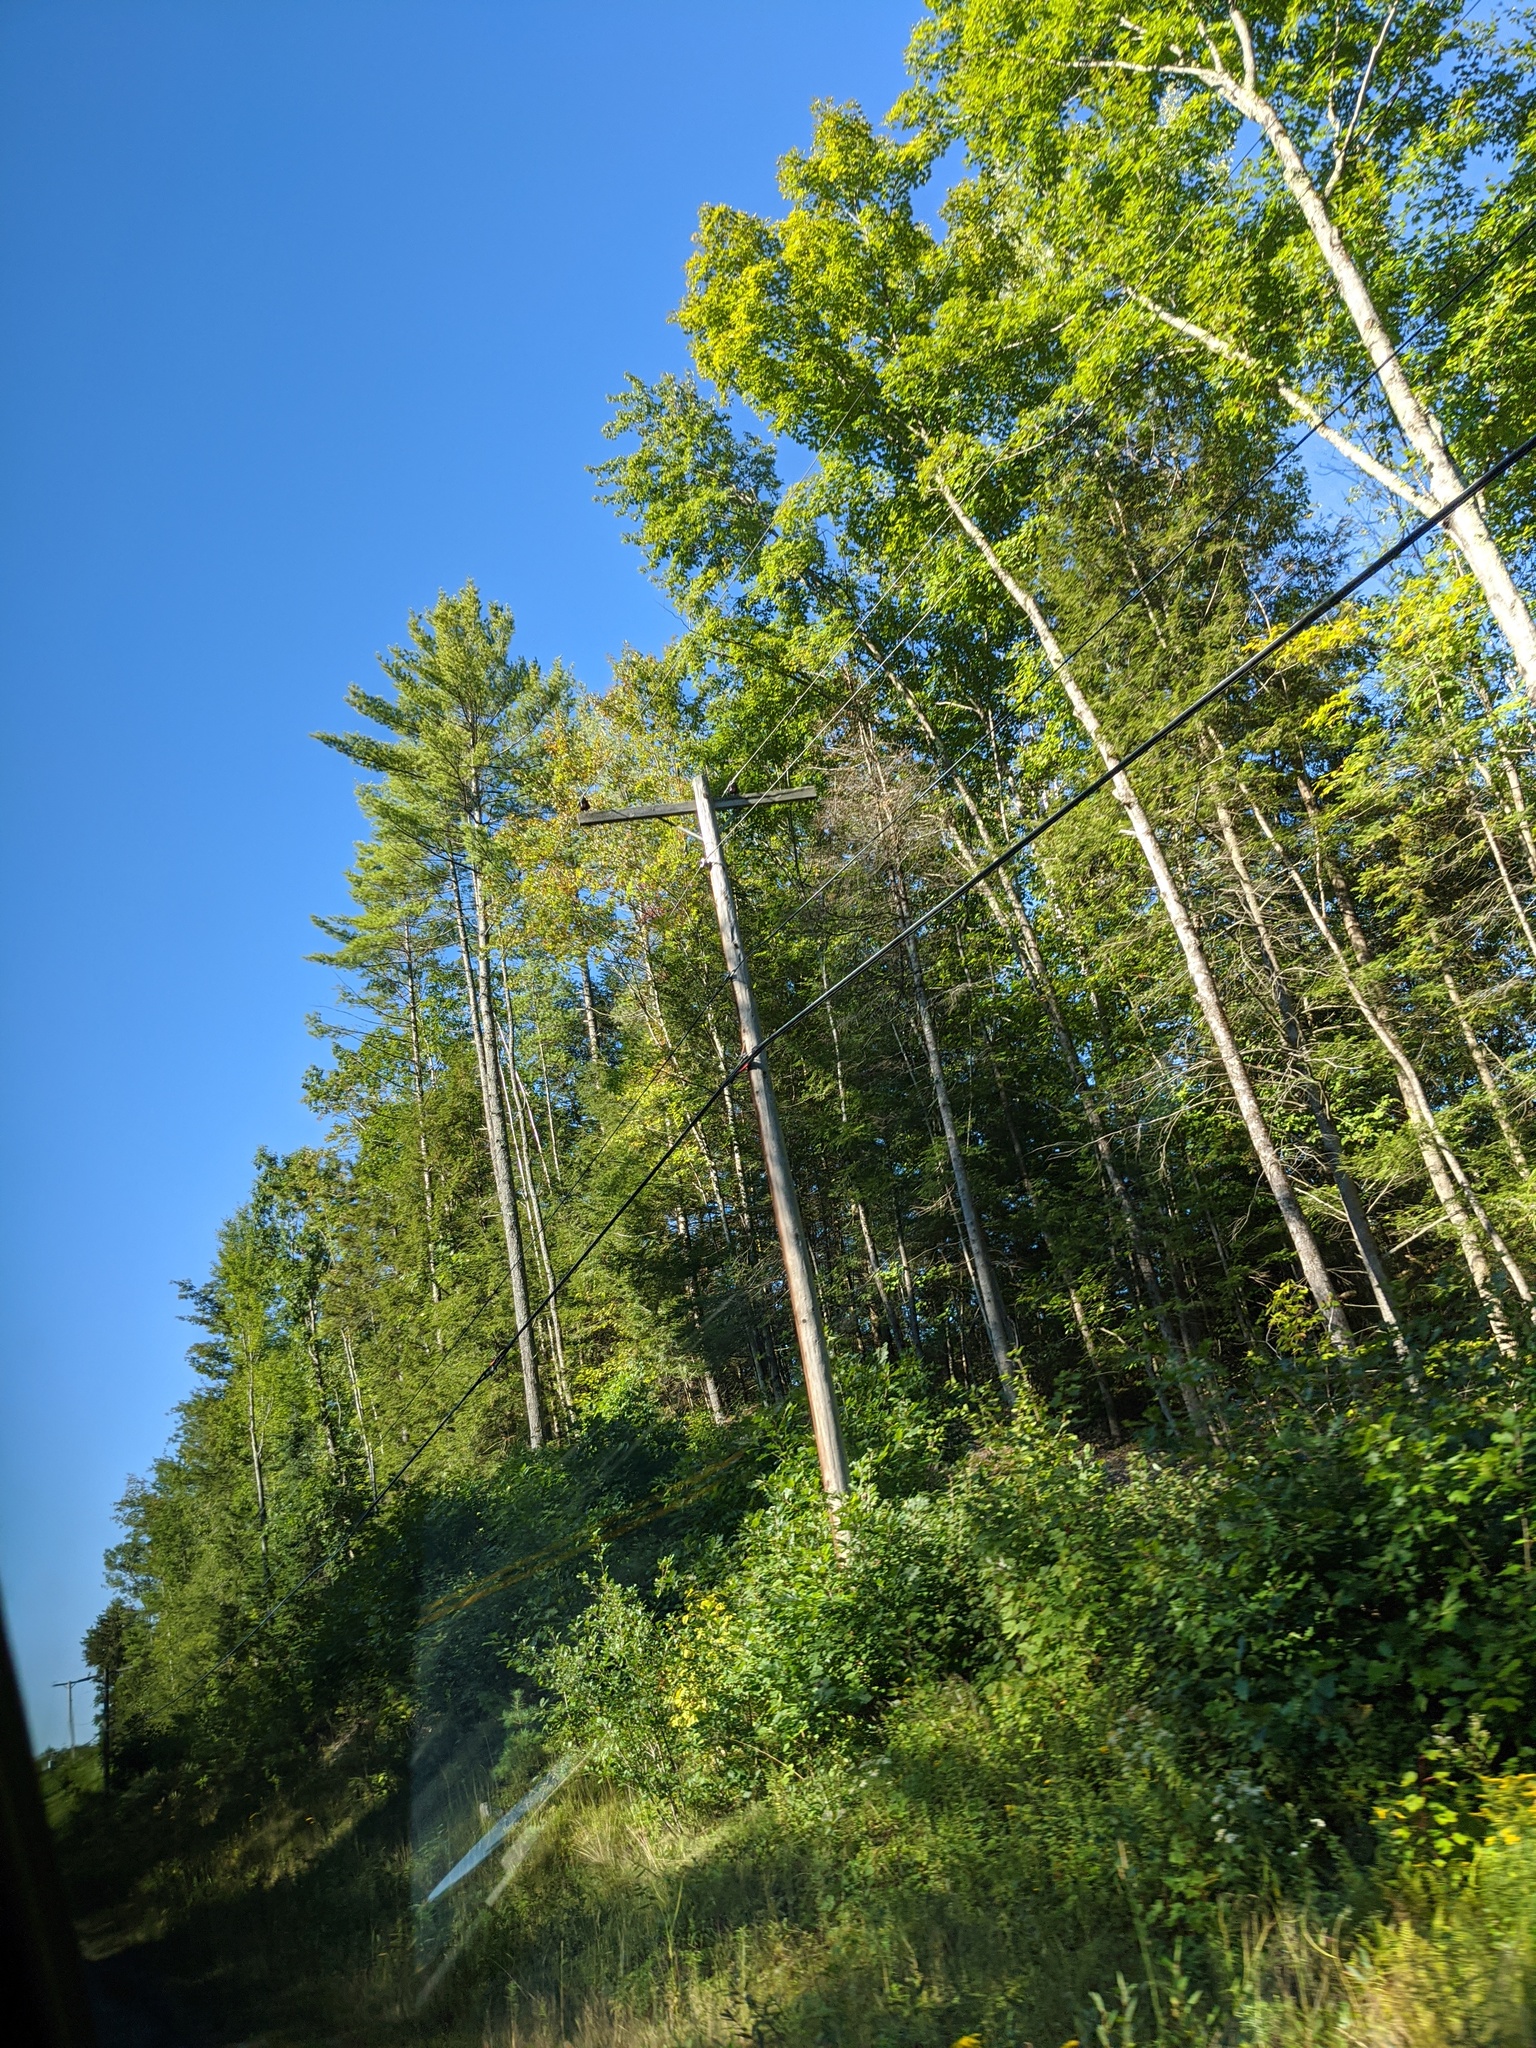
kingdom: Plantae
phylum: Tracheophyta
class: Pinopsida
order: Pinales
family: Pinaceae
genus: Pinus
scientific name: Pinus strobus
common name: Weymouth pine
